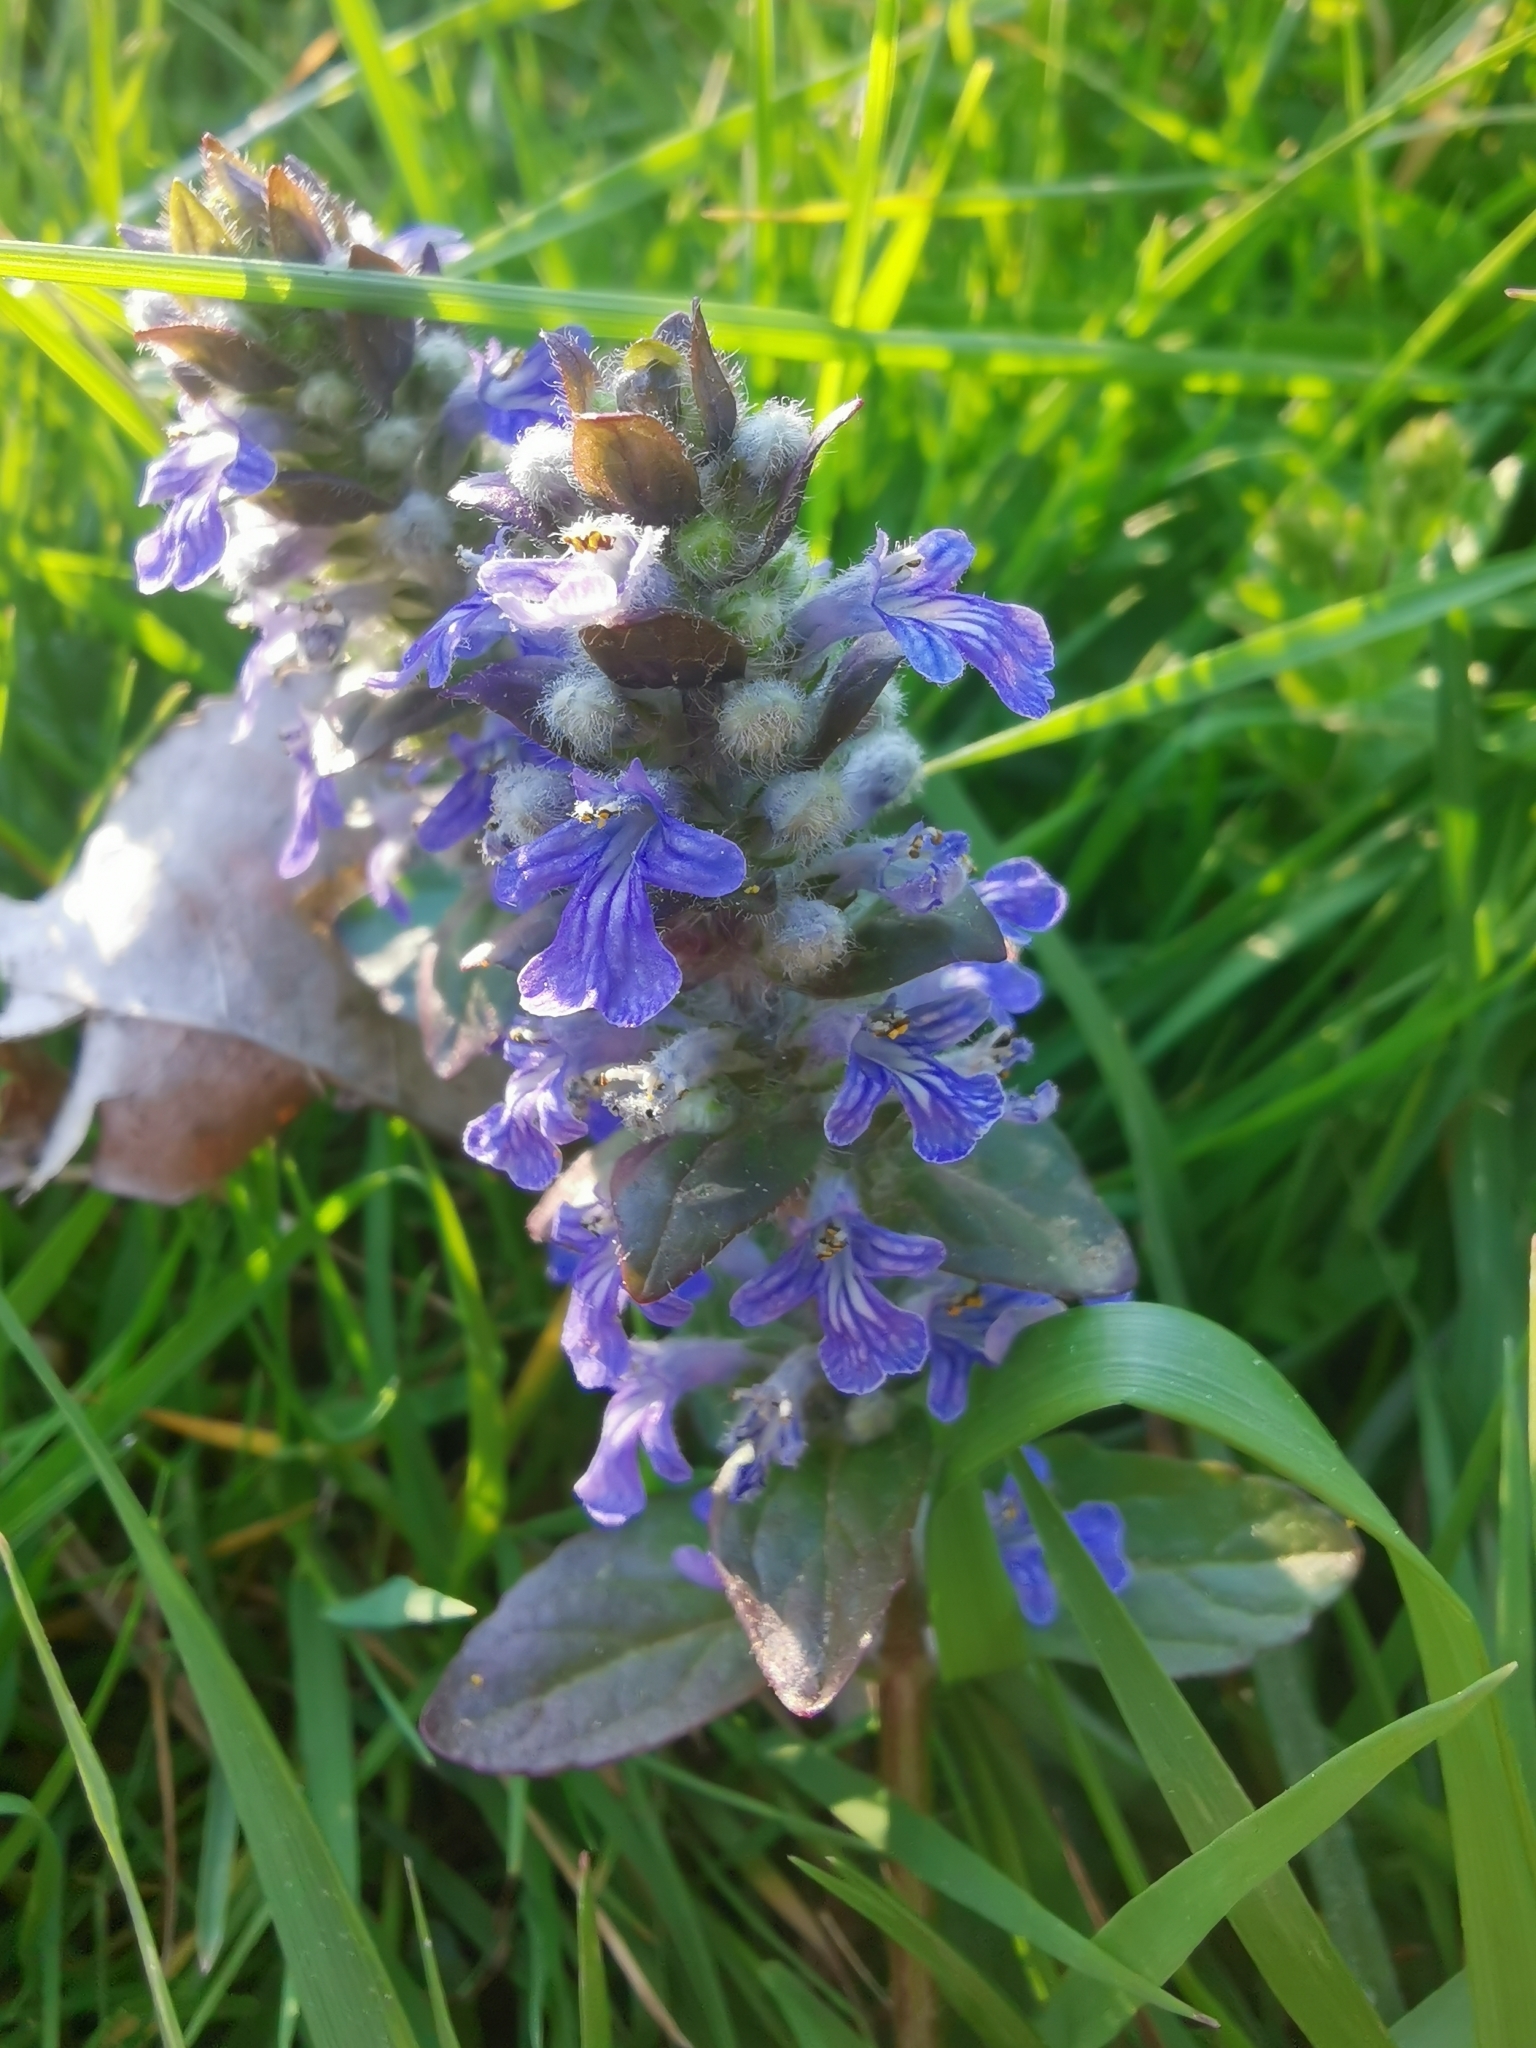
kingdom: Plantae
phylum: Tracheophyta
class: Magnoliopsida
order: Lamiales
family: Lamiaceae
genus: Ajuga
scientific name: Ajuga reptans
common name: Bugle
